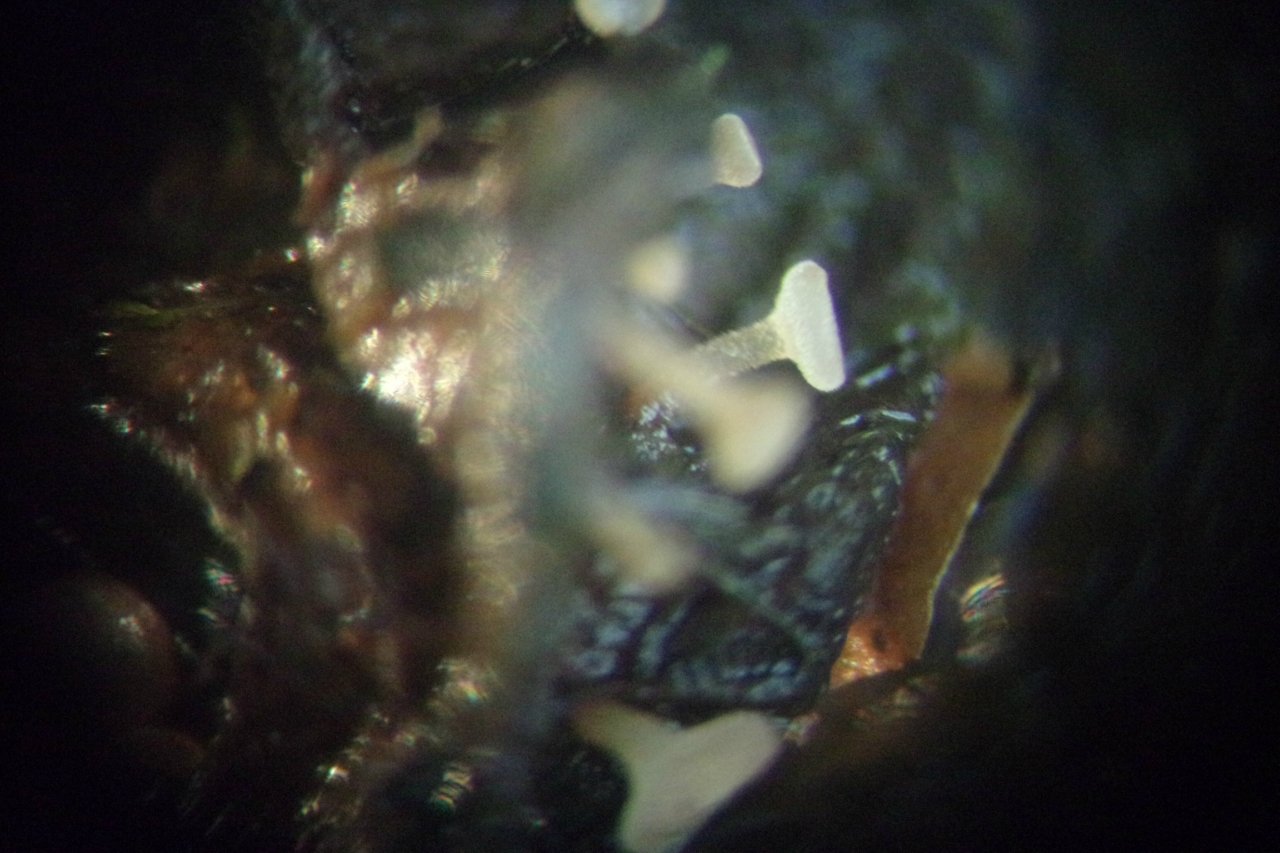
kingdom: Fungi
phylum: Ascomycota
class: Leotiomycetes
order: Helotiales
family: Sclerotiniaceae
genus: Ciboria
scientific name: Ciboria conformata
